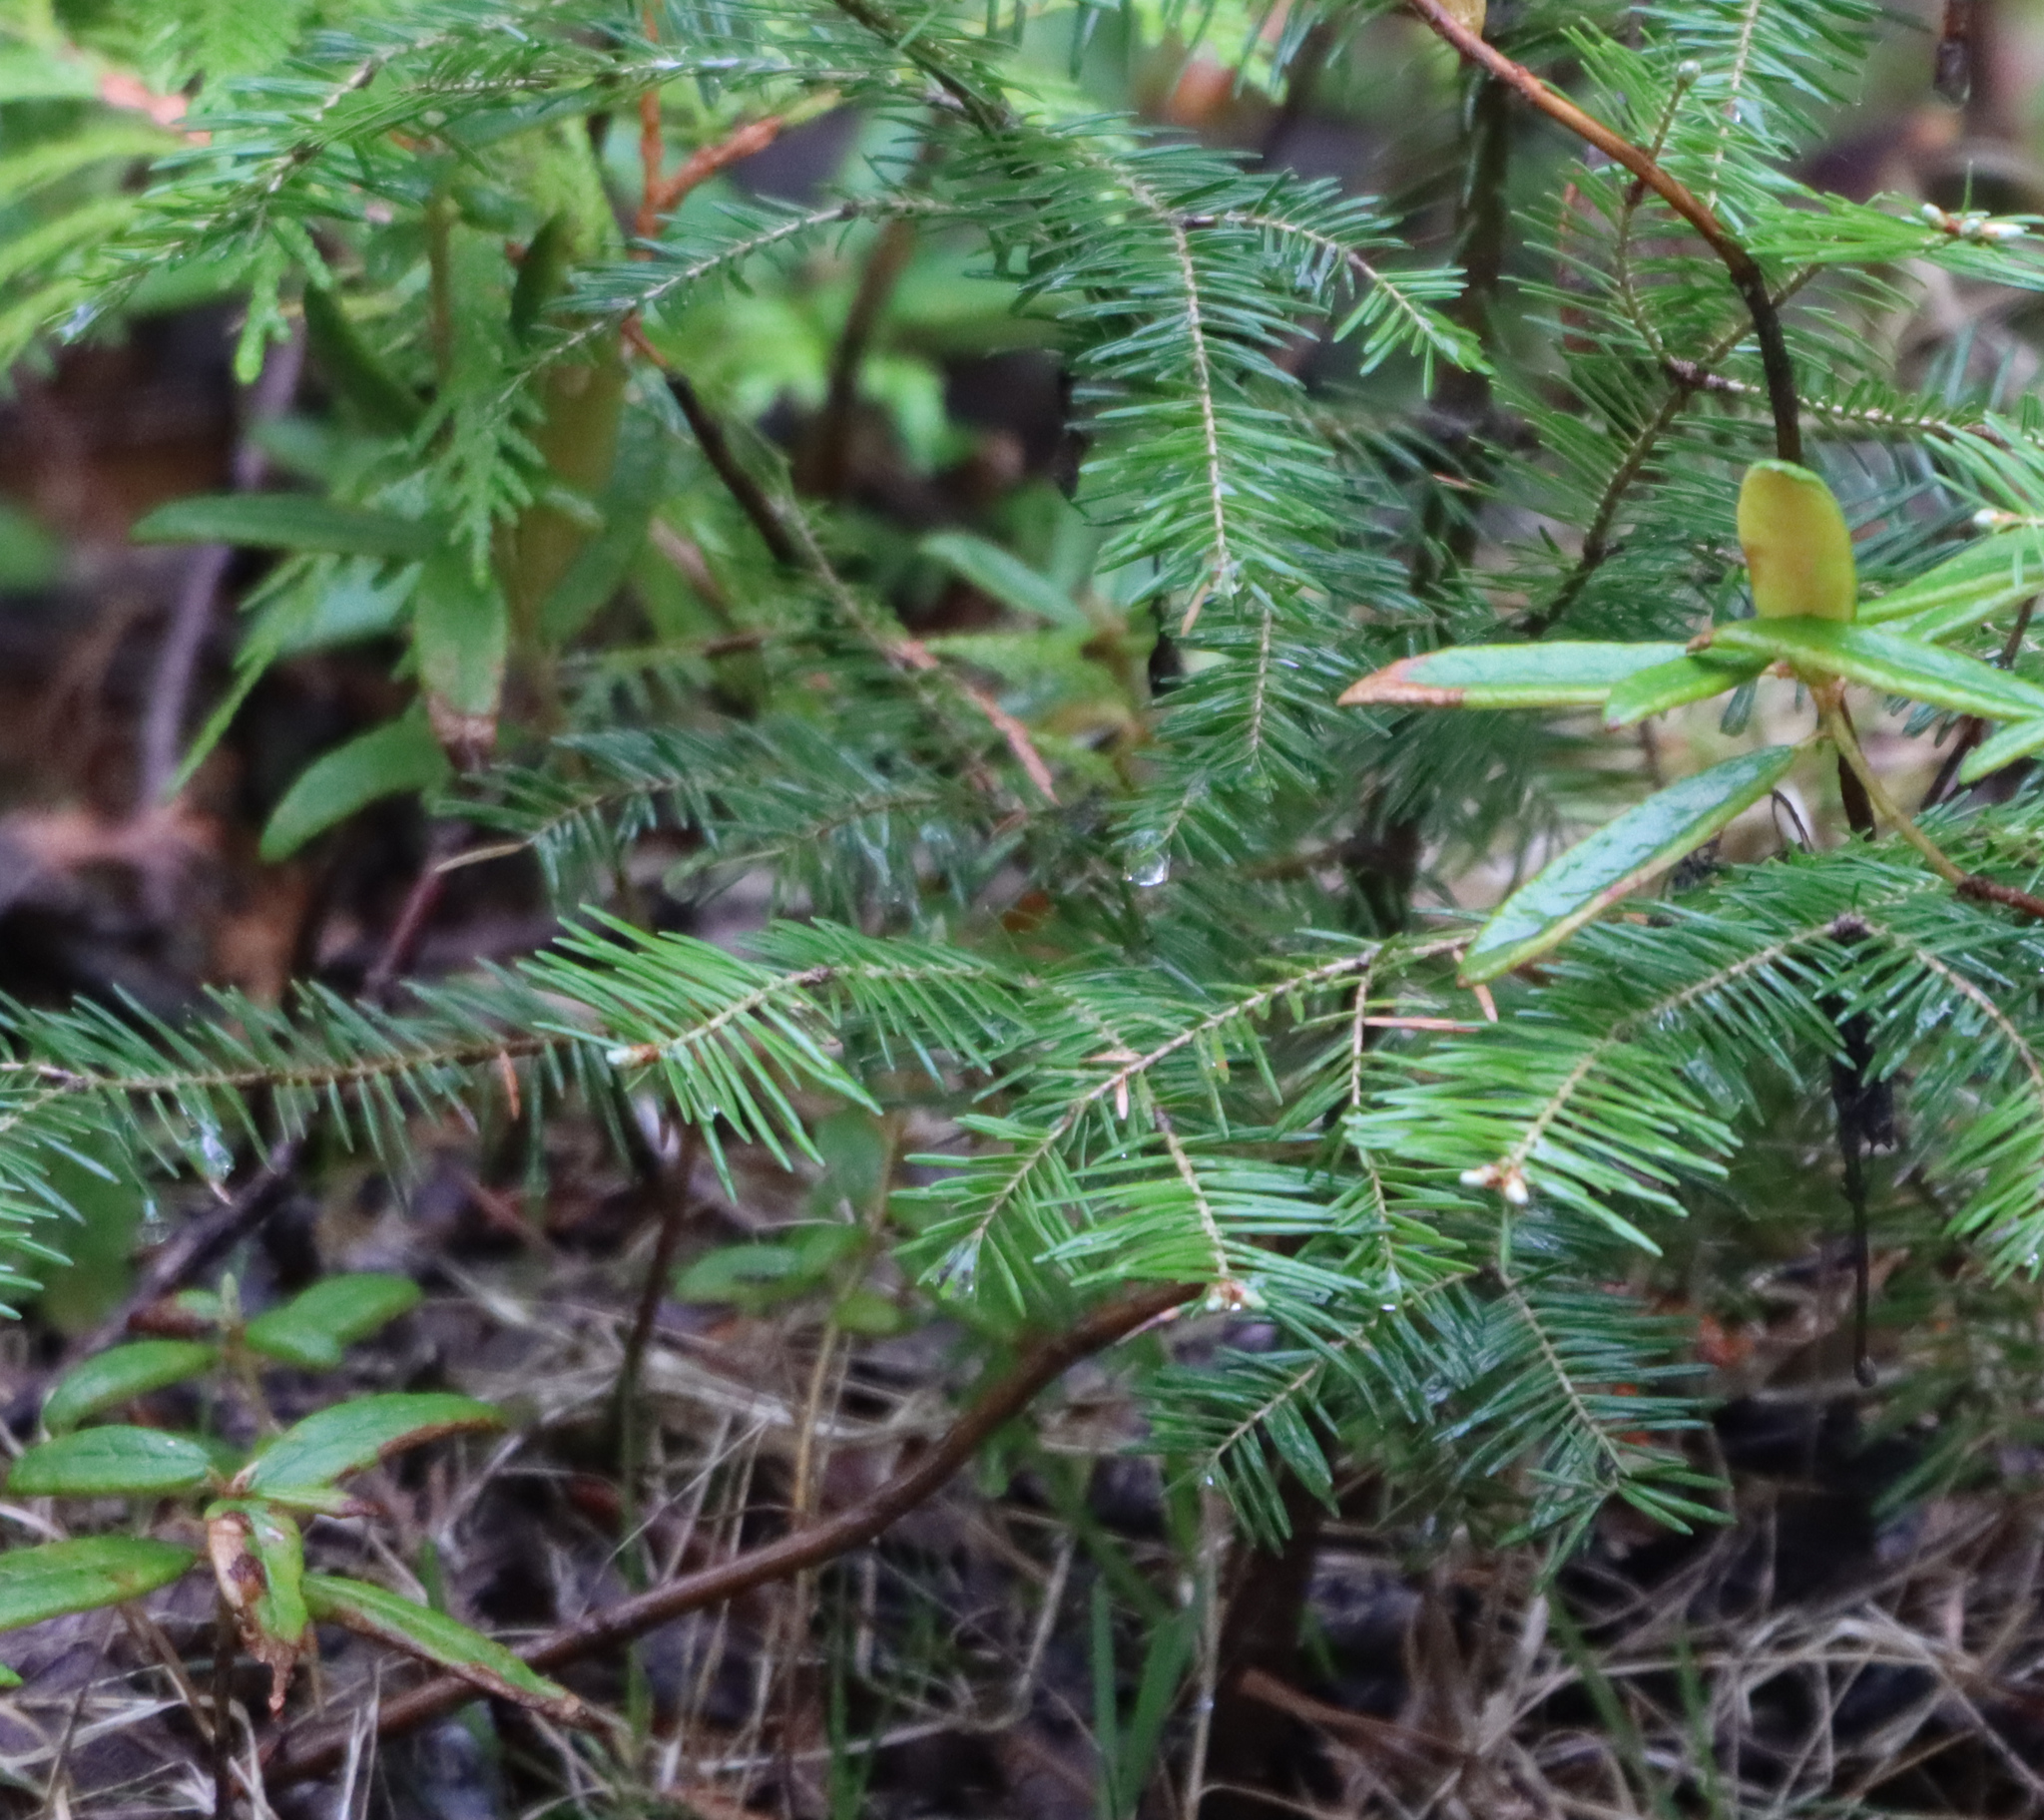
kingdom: Plantae
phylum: Tracheophyta
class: Pinopsida
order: Pinales
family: Pinaceae
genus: Abies
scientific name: Abies balsamea
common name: Balsam fir
